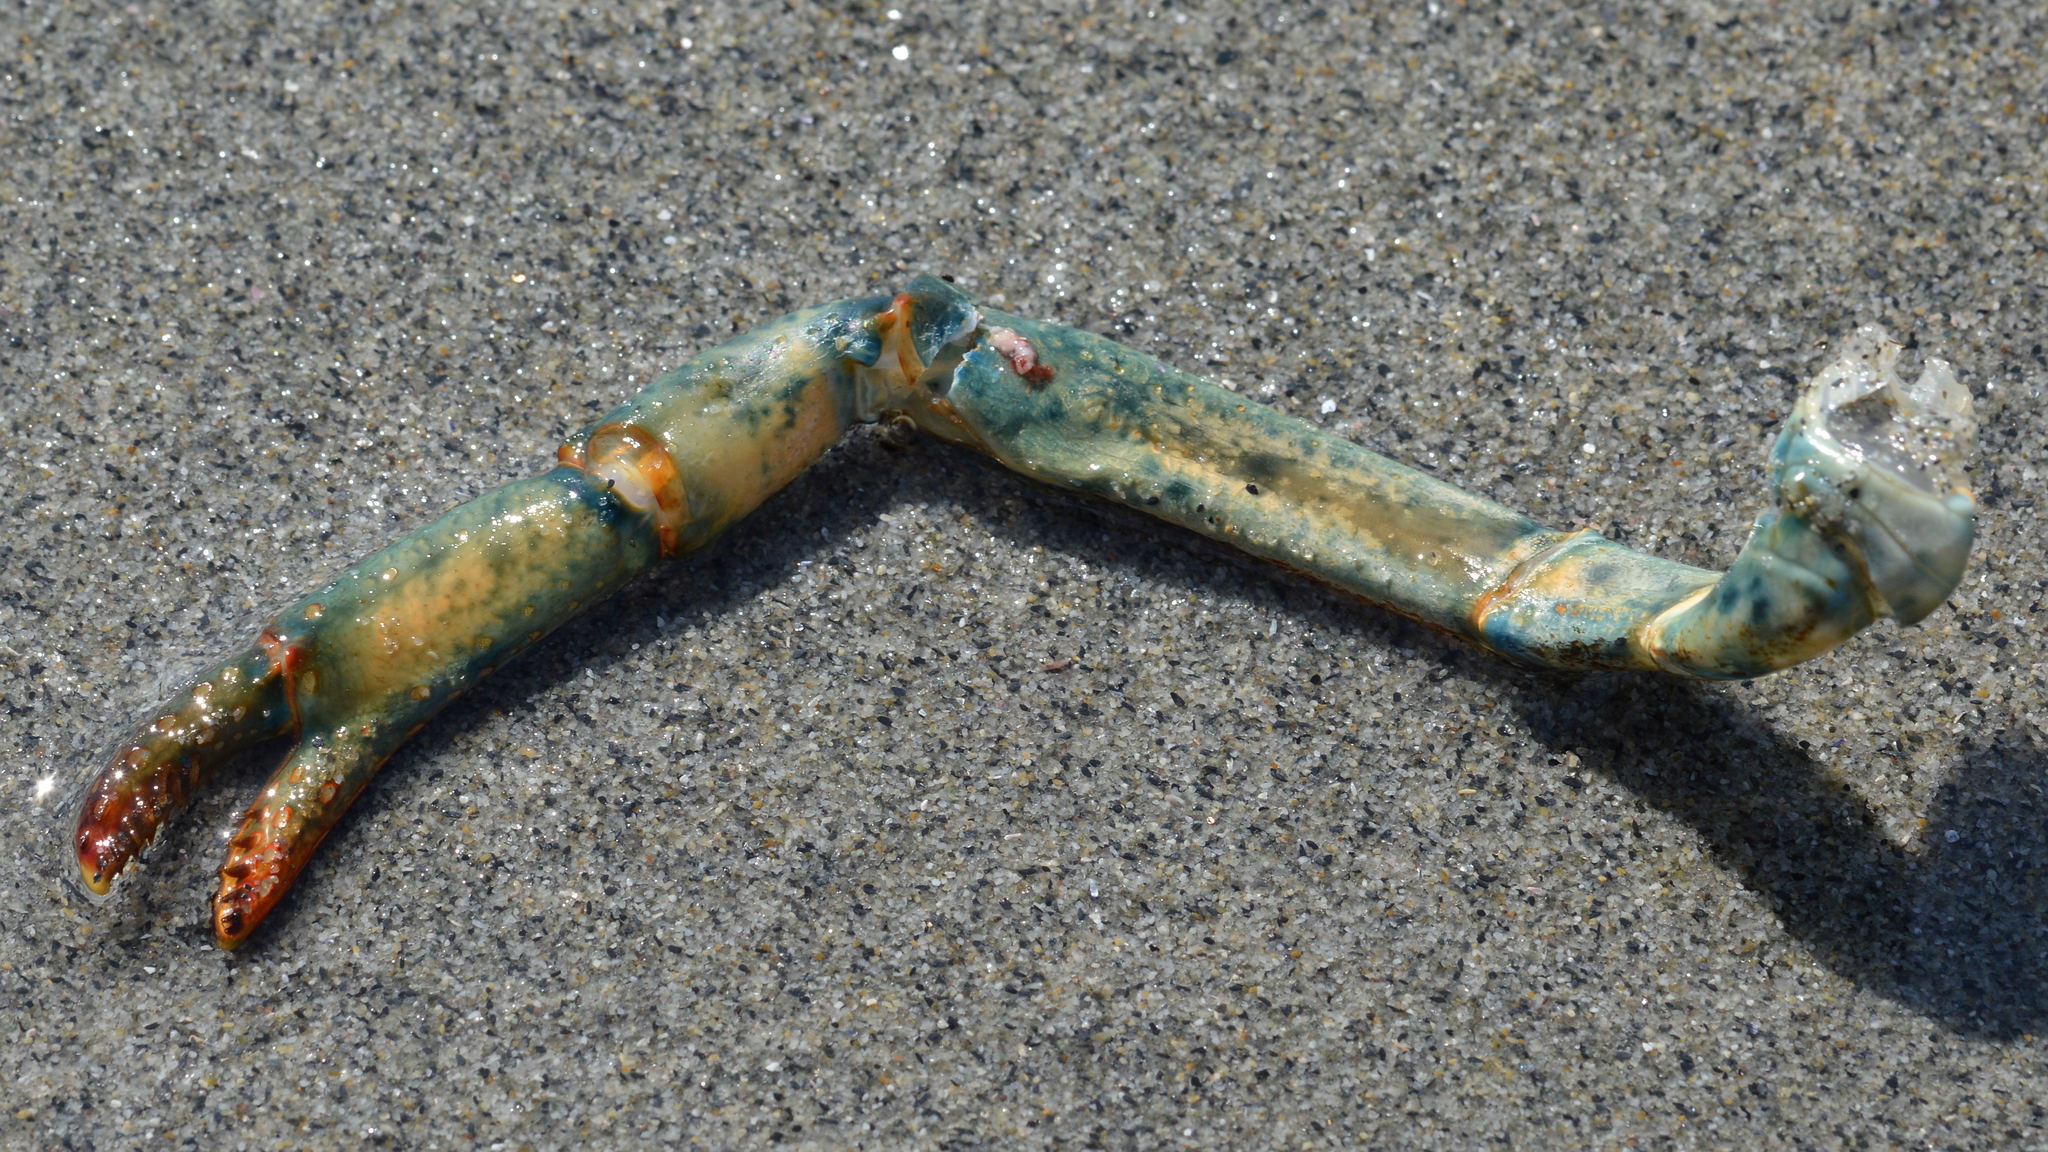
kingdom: Animalia
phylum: Arthropoda
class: Malacostraca
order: Decapoda
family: Nephropidae
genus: Homarus
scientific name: Homarus americanus
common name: American lobster
